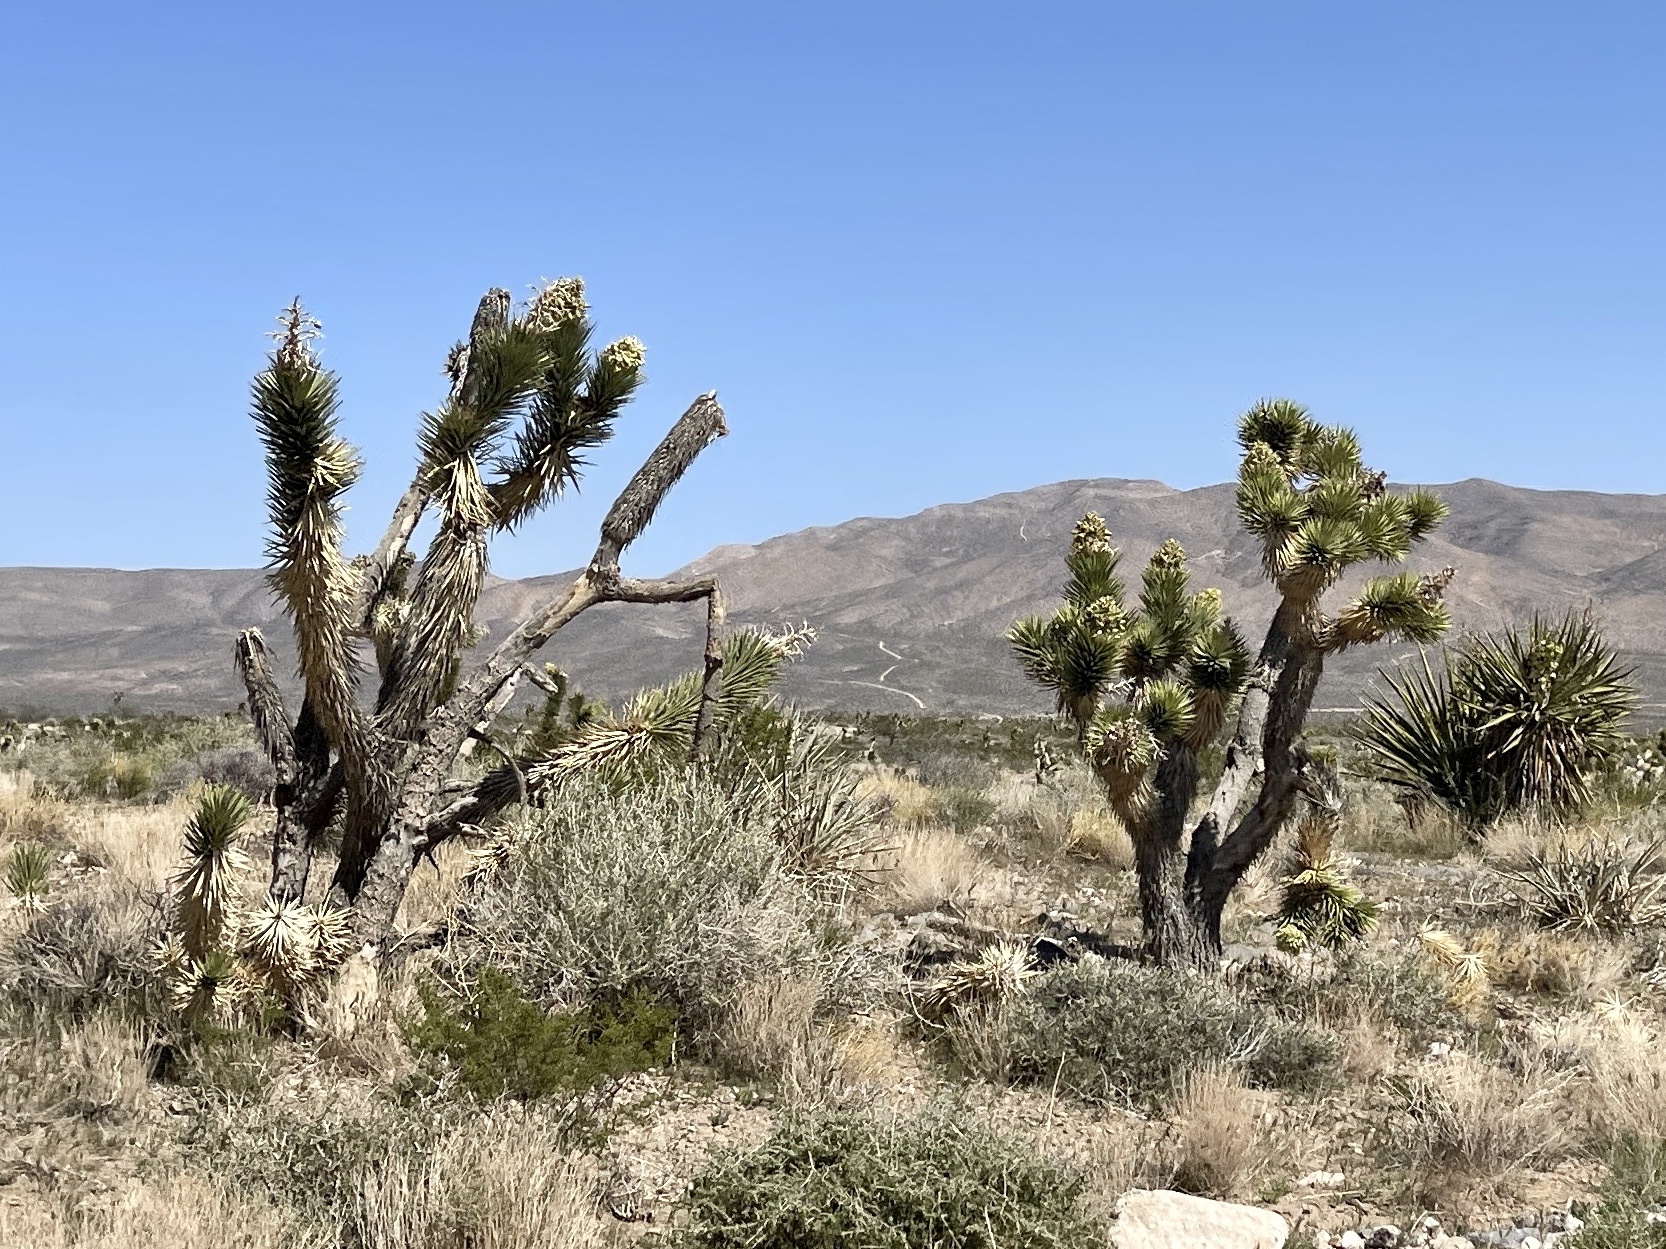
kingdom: Plantae
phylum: Tracheophyta
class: Liliopsida
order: Asparagales
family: Asparagaceae
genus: Yucca
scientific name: Yucca brevifolia
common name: Joshua tree
